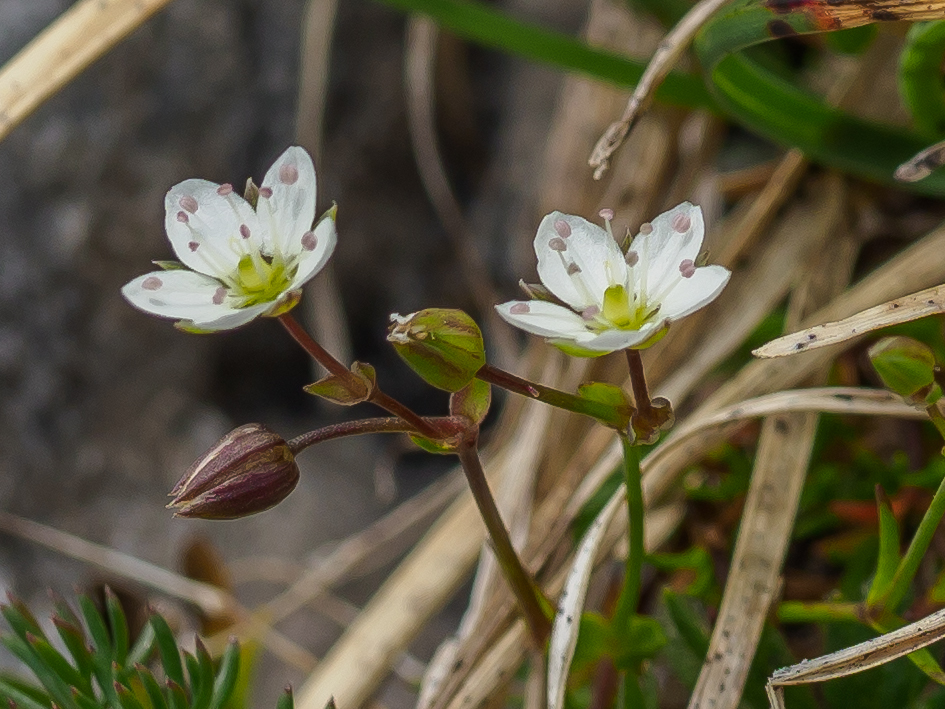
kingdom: Plantae
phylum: Tracheophyta
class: Magnoliopsida
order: Caryophyllales
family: Caryophyllaceae
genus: Sabulina
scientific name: Sabulina verna
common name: Spring sandwort
